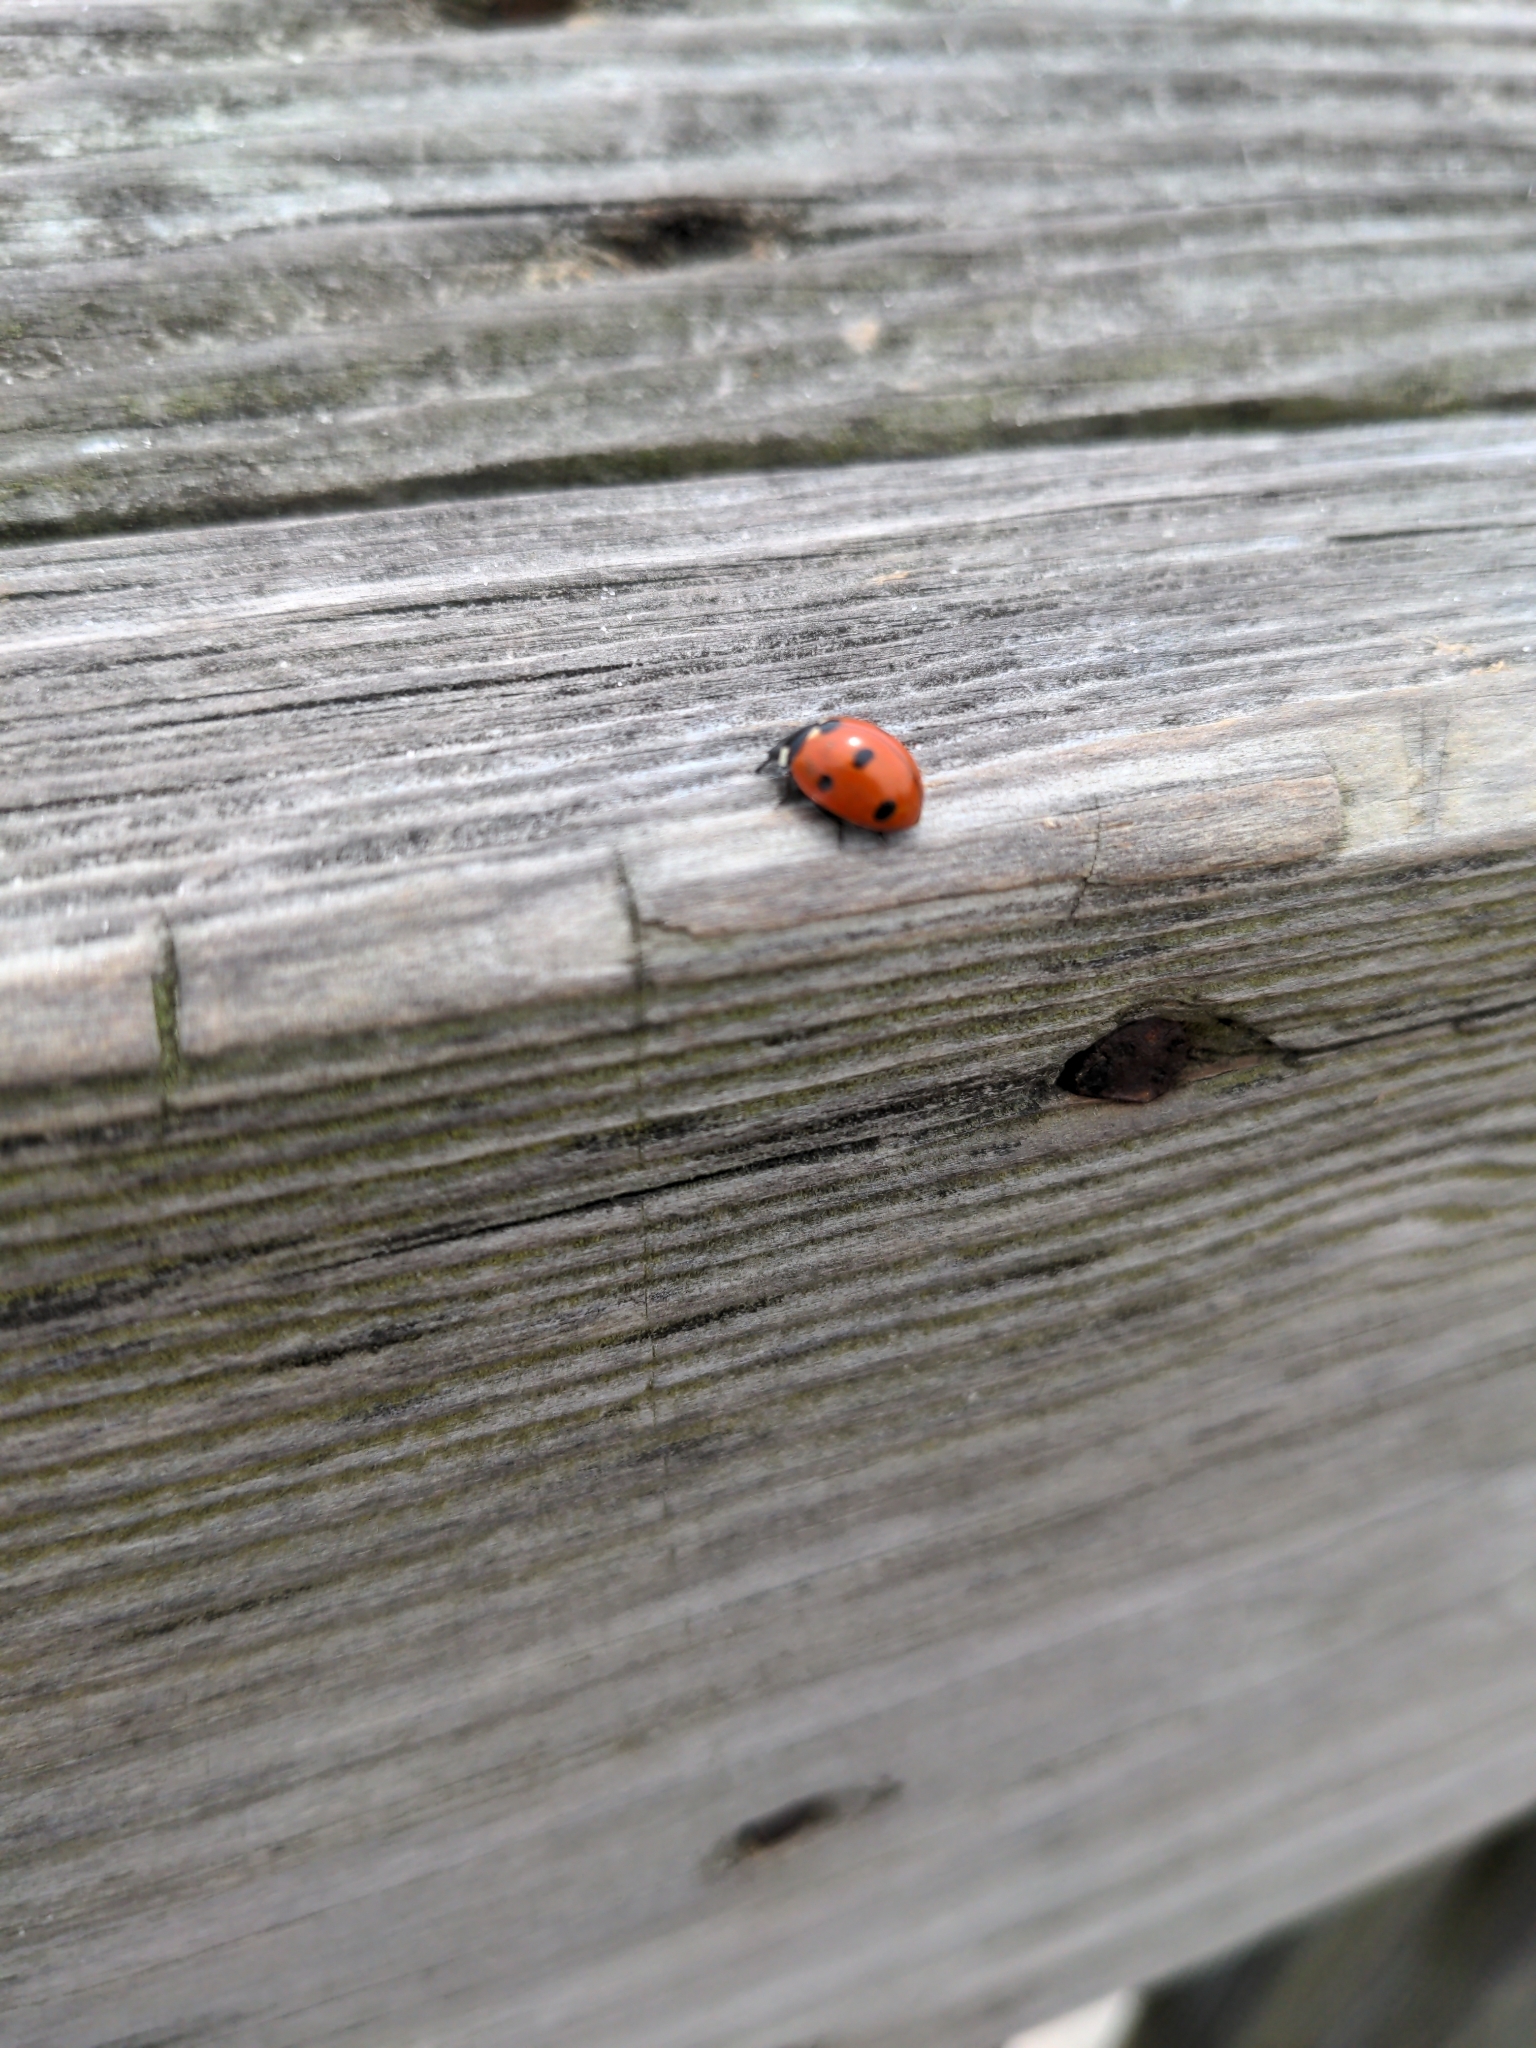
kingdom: Animalia
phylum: Arthropoda
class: Insecta
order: Coleoptera
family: Coccinellidae
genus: Coccinella
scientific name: Coccinella septempunctata
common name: Sevenspotted lady beetle
